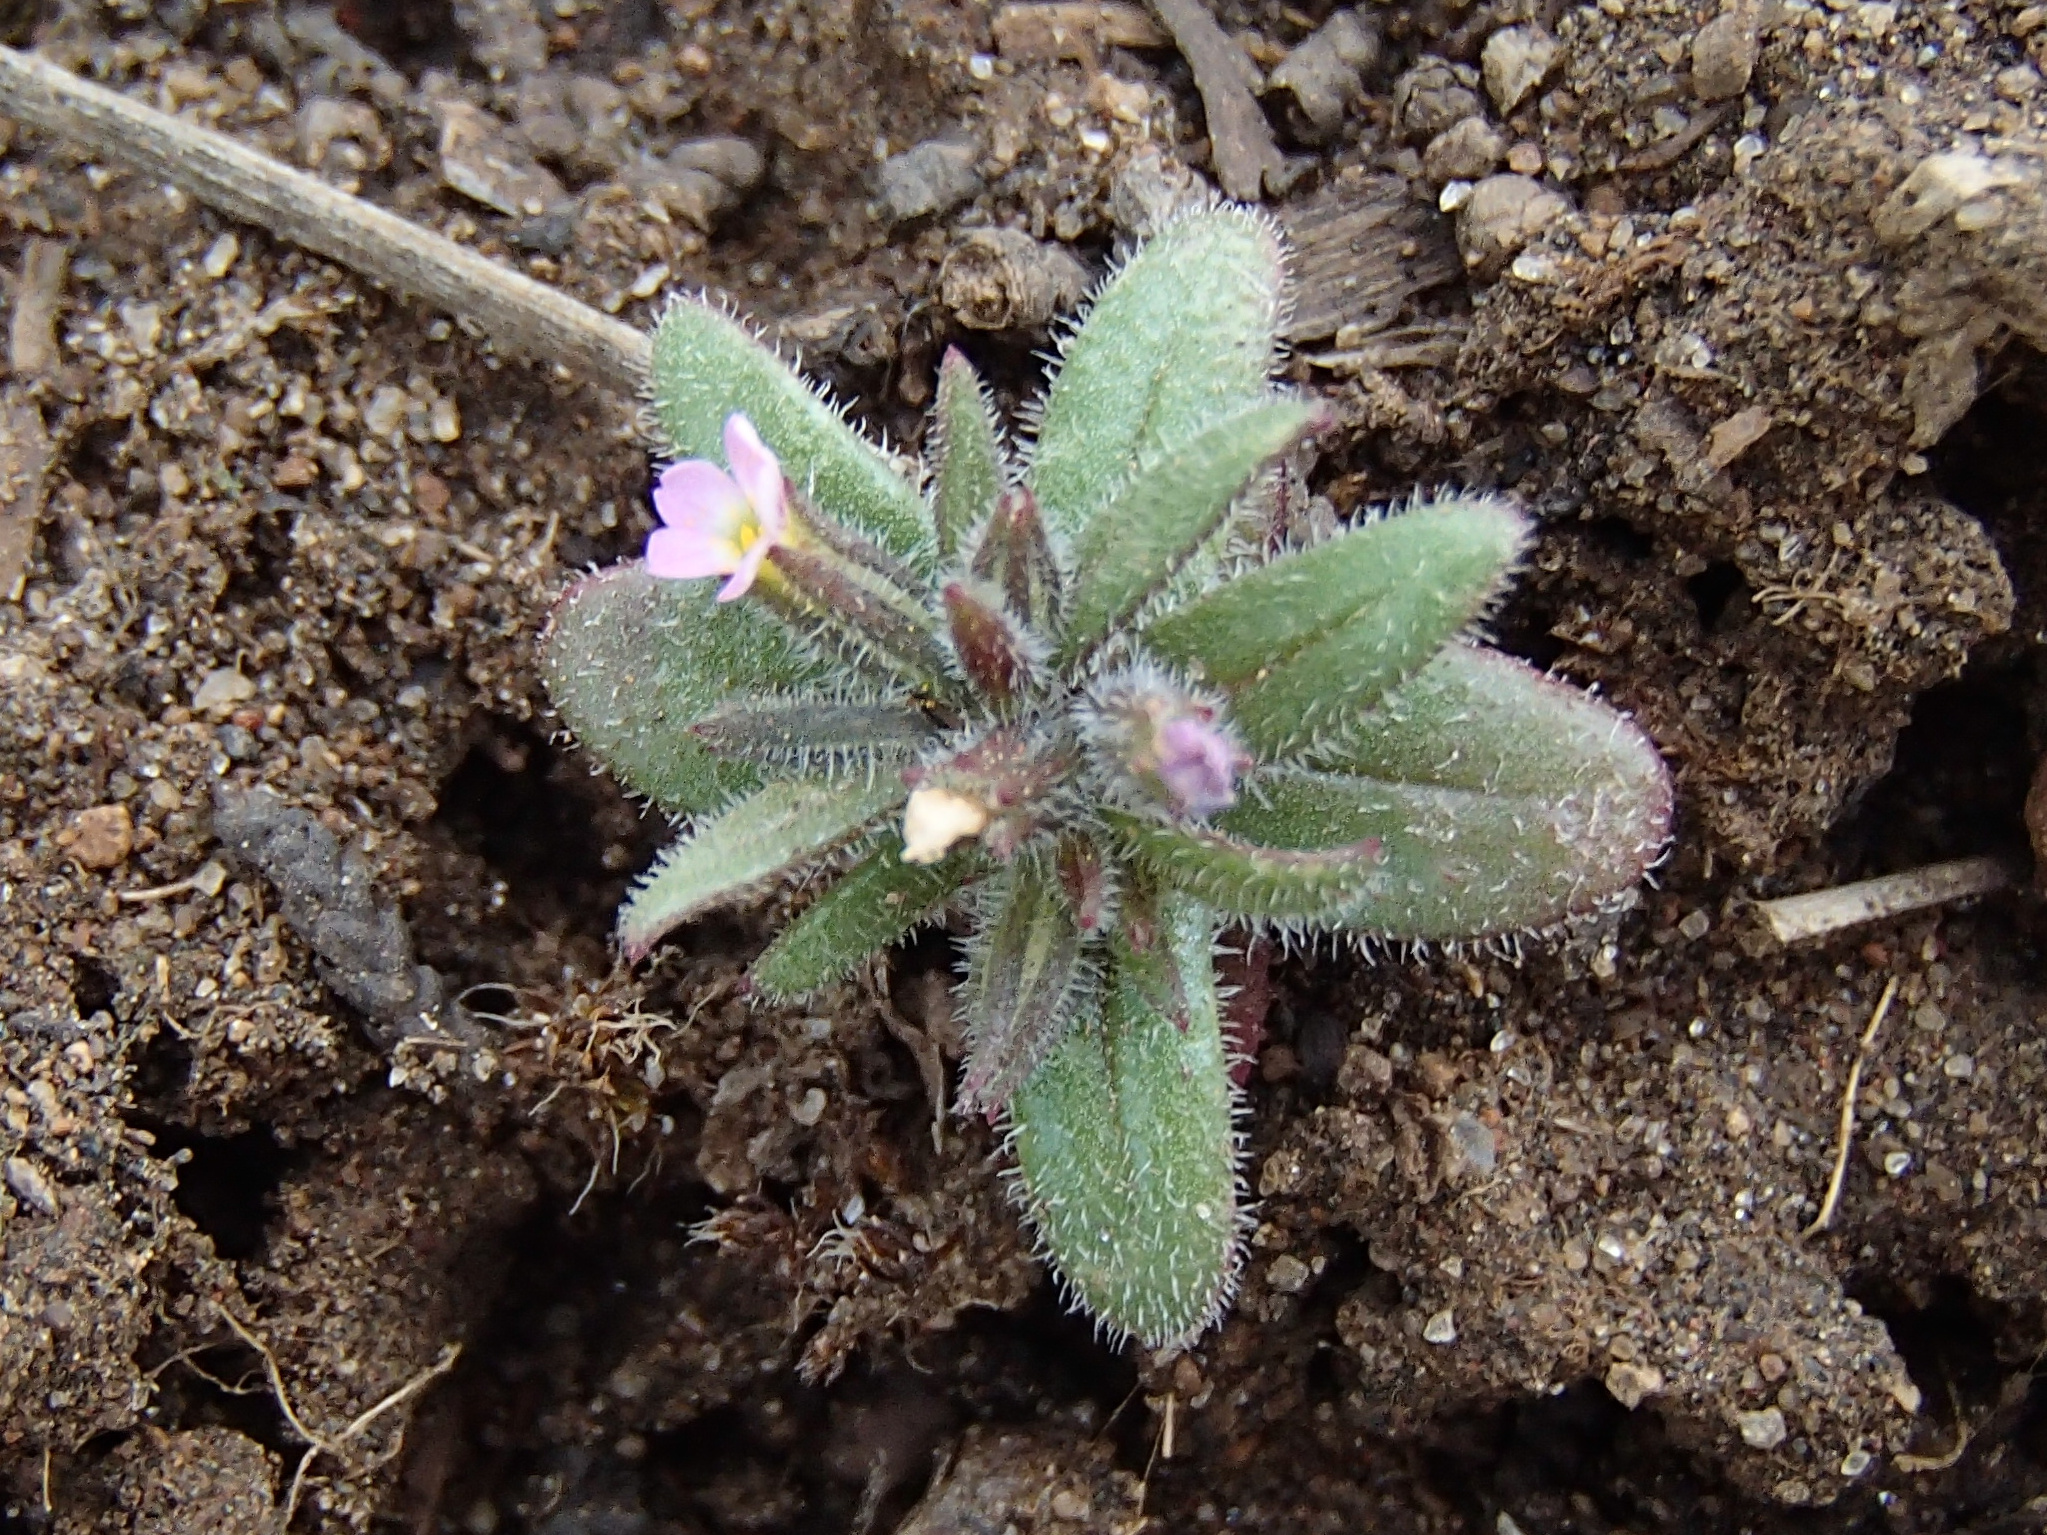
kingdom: Plantae
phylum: Tracheophyta
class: Magnoliopsida
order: Ericales
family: Polemoniaceae
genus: Phlox
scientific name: Phlox gracilis
